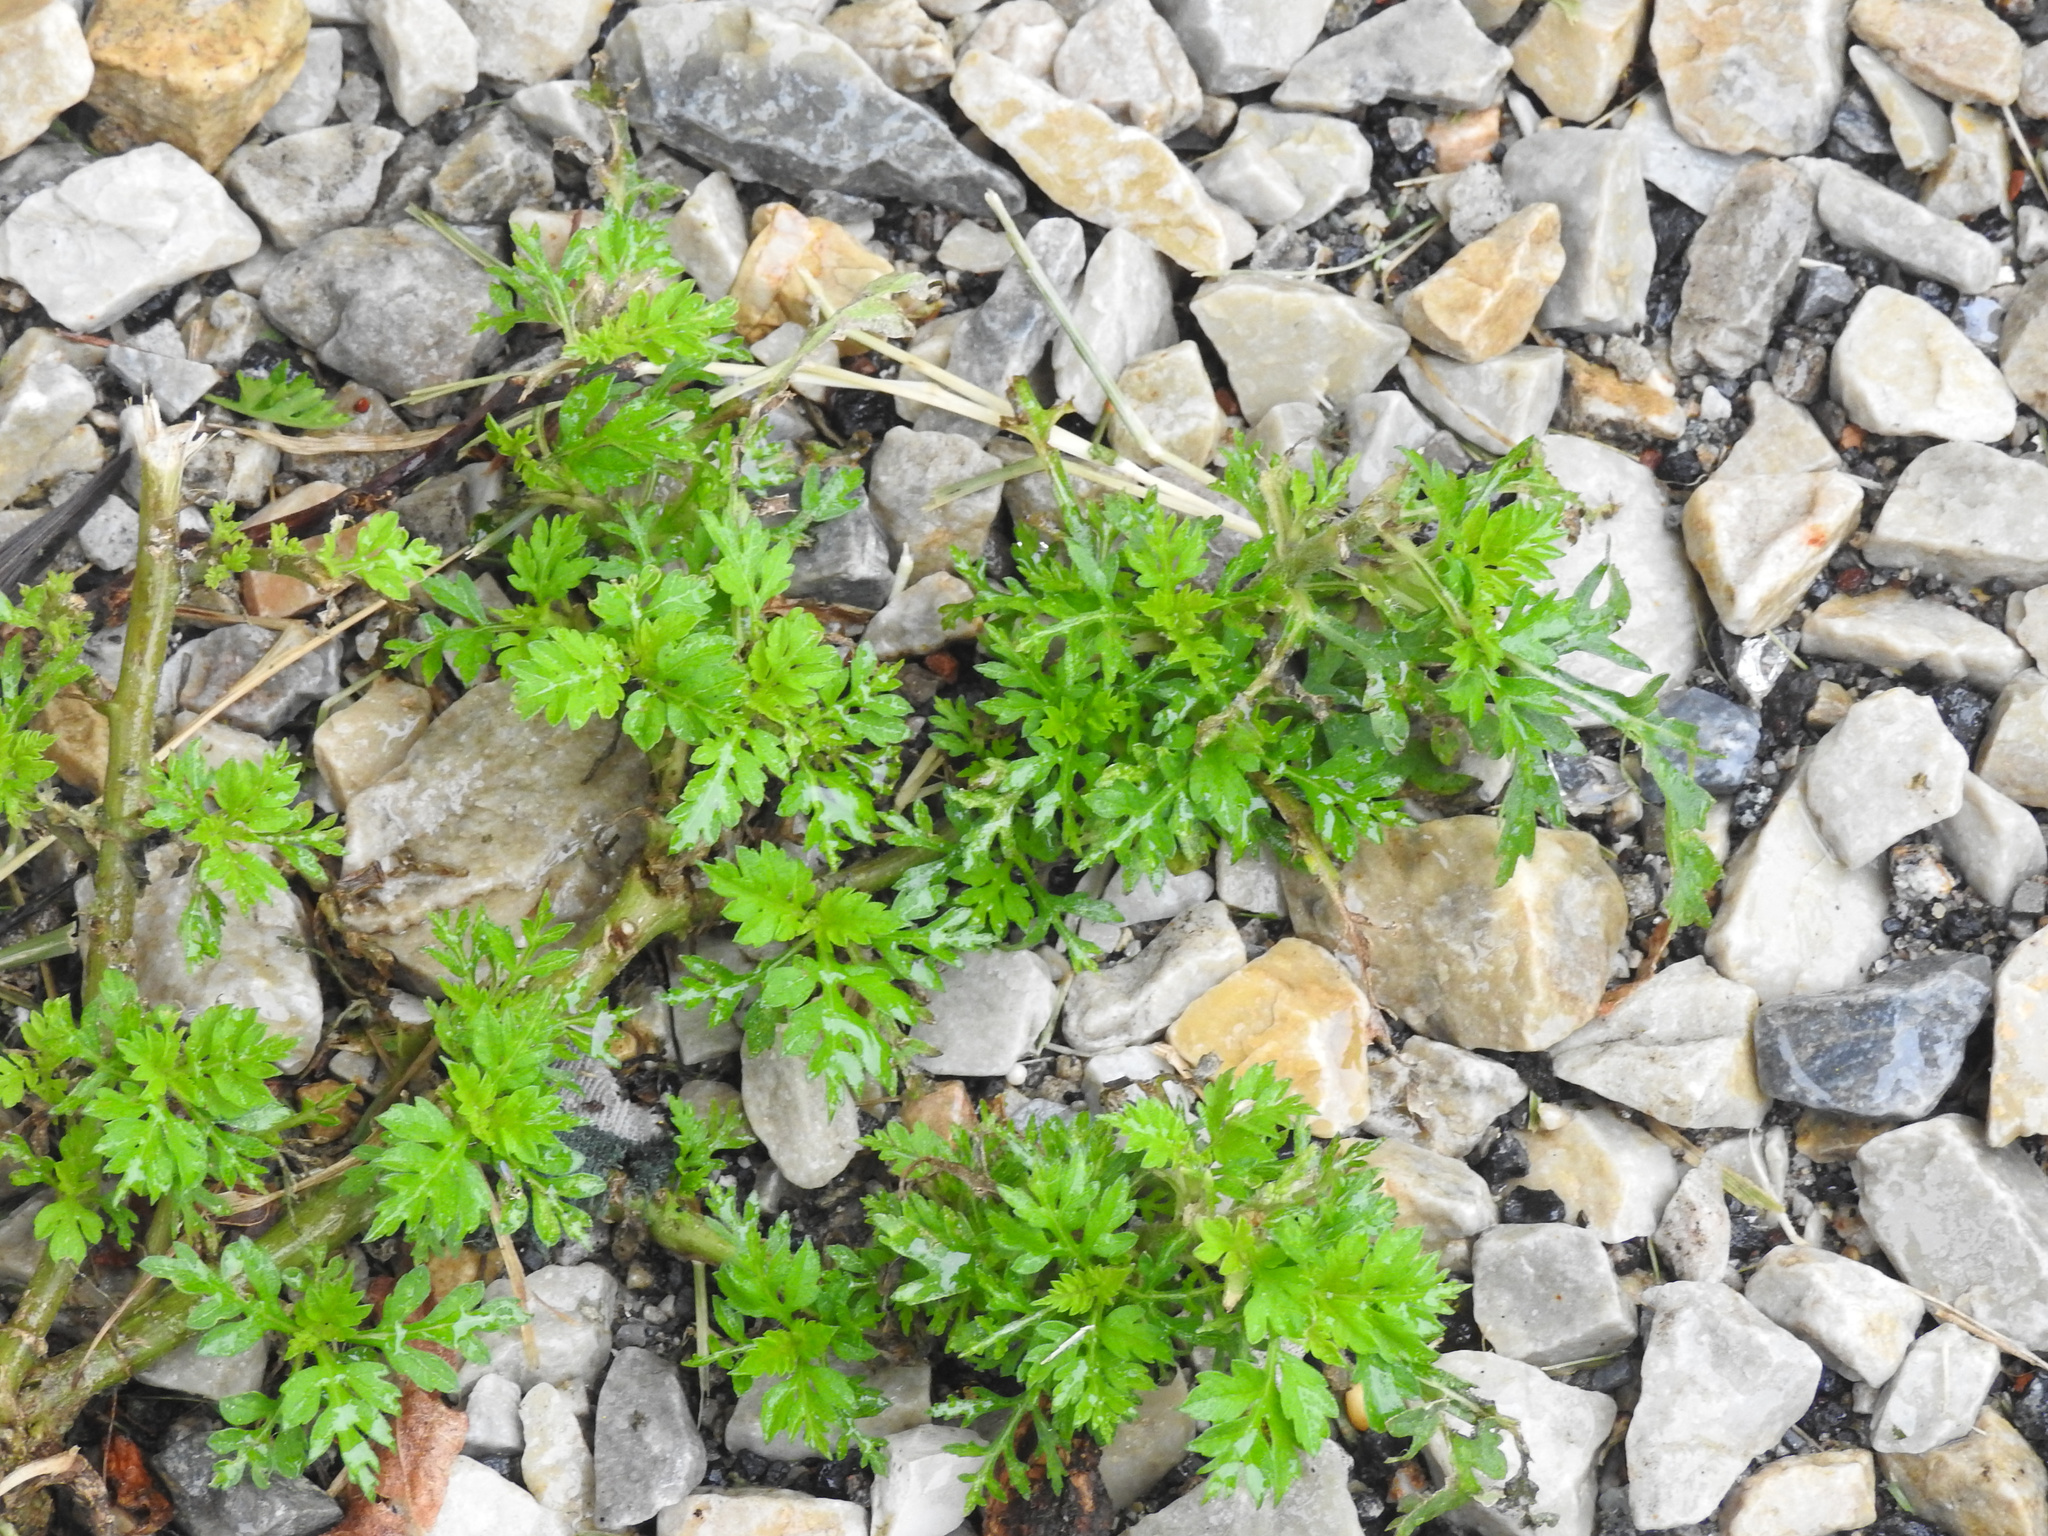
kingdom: Plantae
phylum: Tracheophyta
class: Magnoliopsida
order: Asterales
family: Asteraceae
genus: Artemisia
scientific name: Artemisia vulgaris
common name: Mugwort
